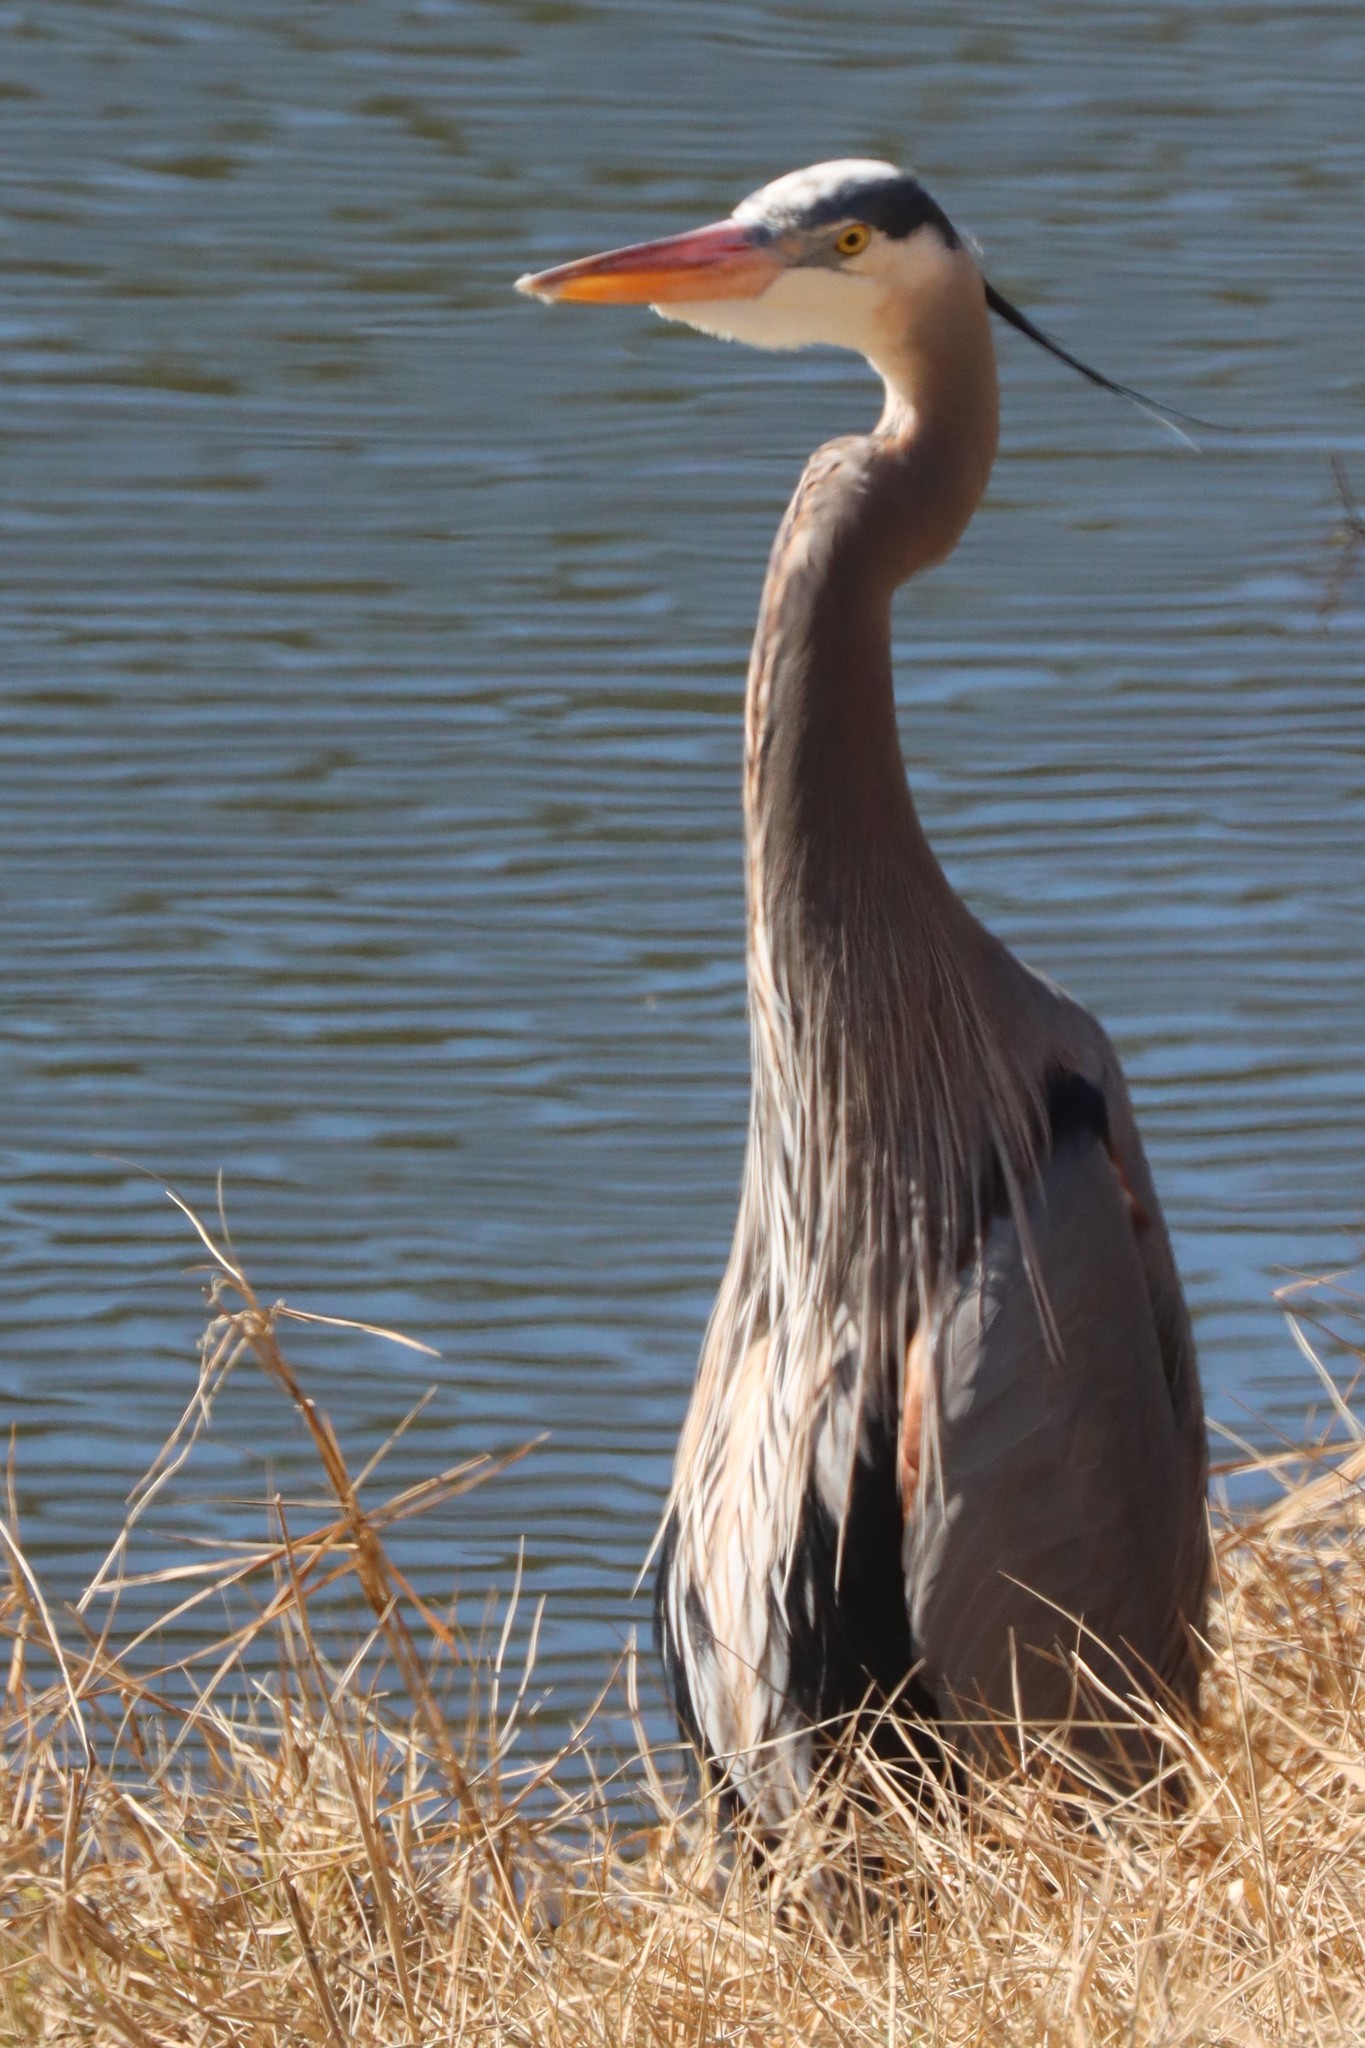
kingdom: Animalia
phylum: Chordata
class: Aves
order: Pelecaniformes
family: Ardeidae
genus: Ardea
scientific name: Ardea herodias
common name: Great blue heron
